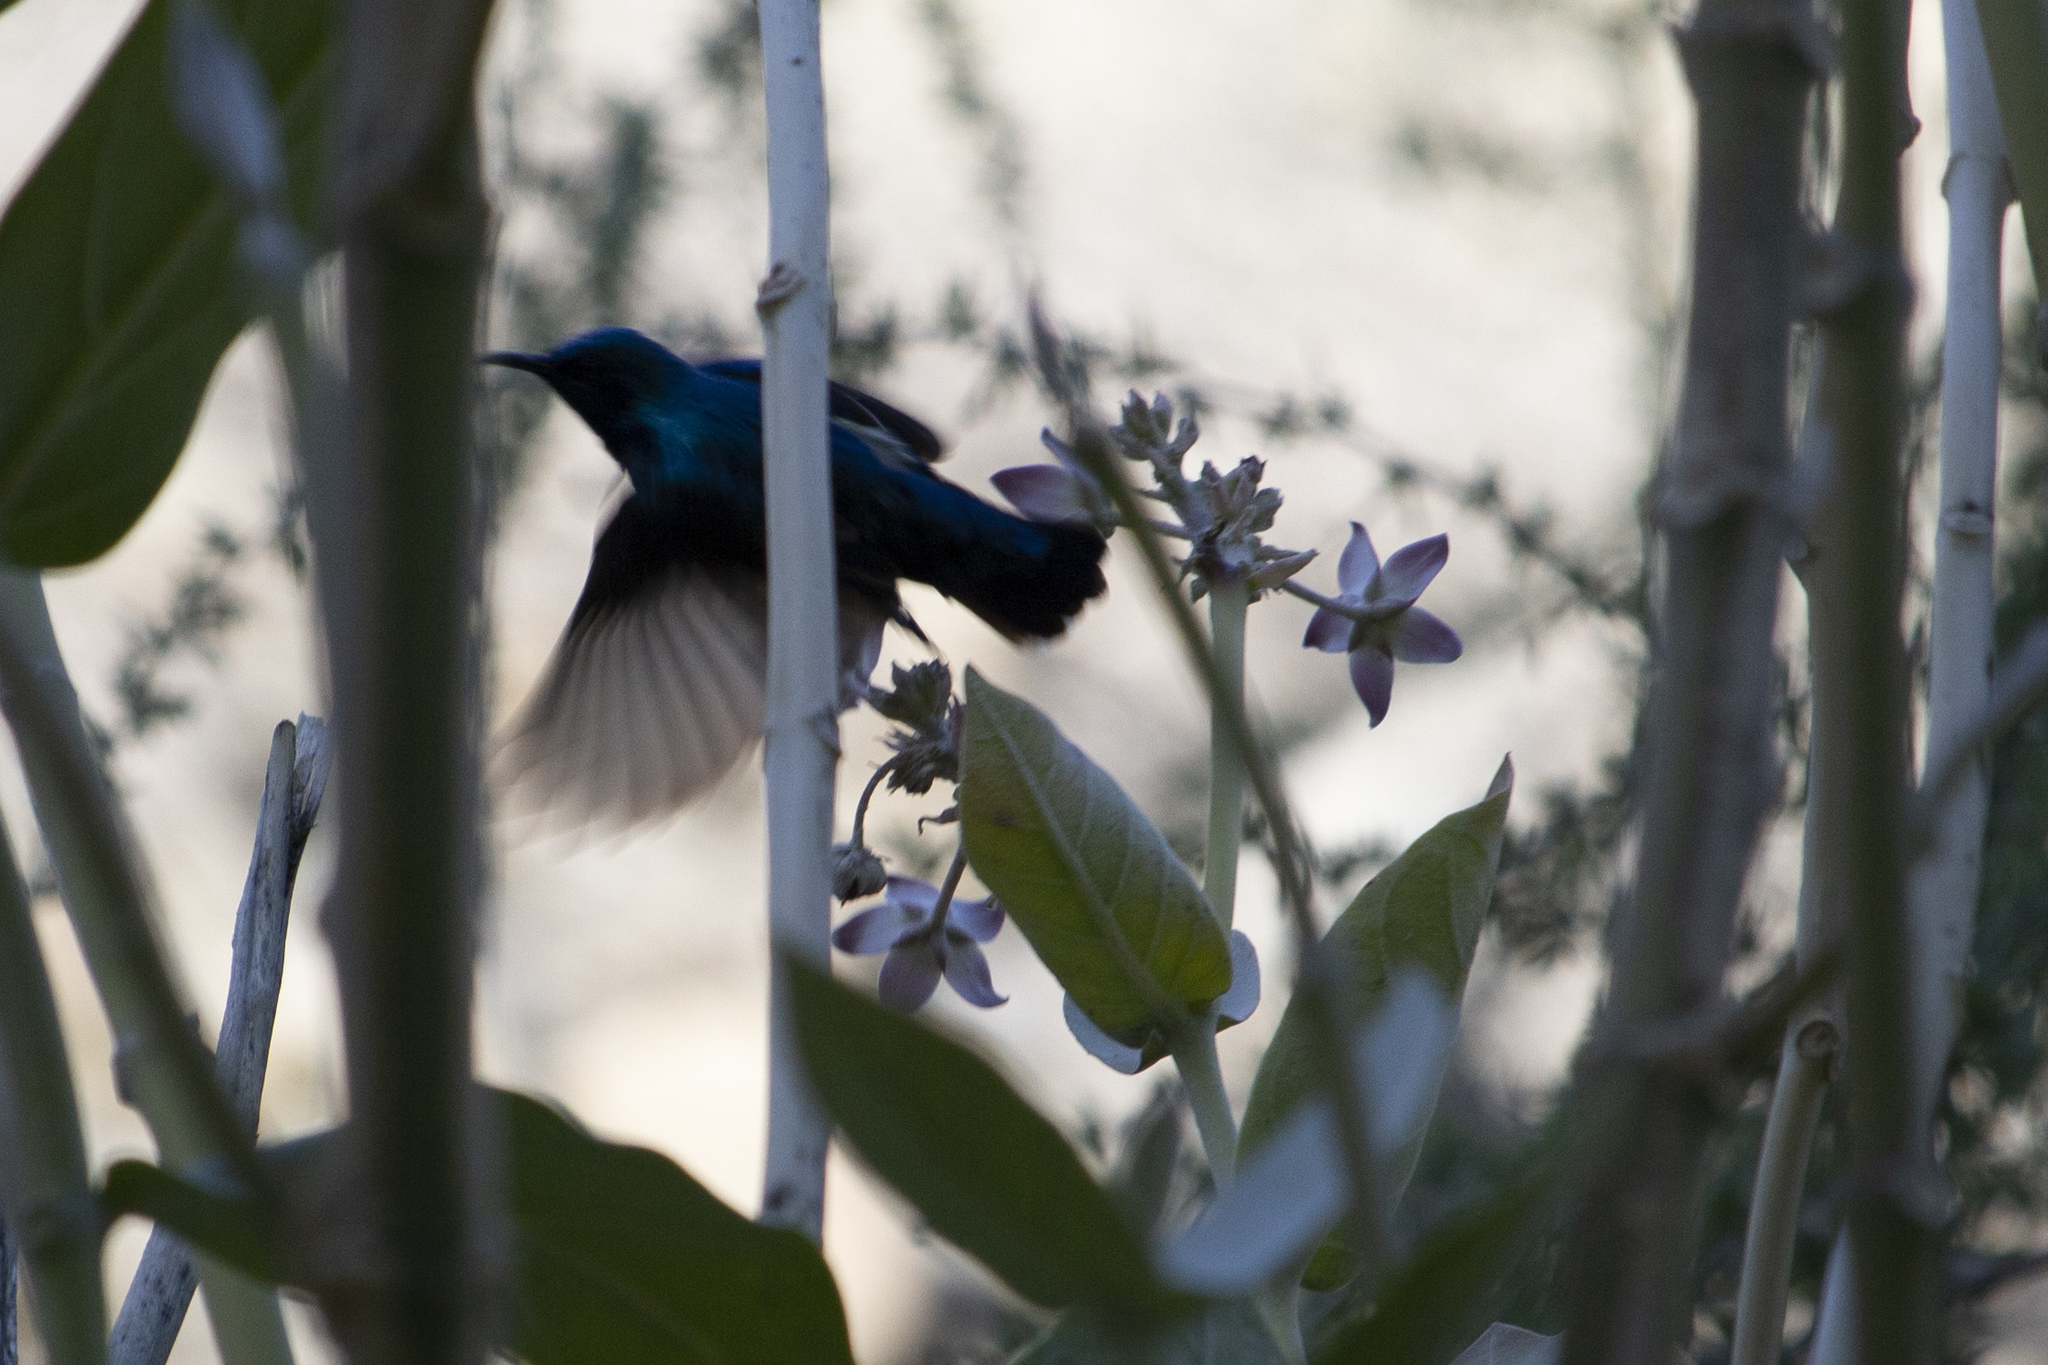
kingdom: Plantae
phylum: Tracheophyta
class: Magnoliopsida
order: Gentianales
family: Apocynaceae
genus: Calotropis
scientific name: Calotropis procera
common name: Roostertree
